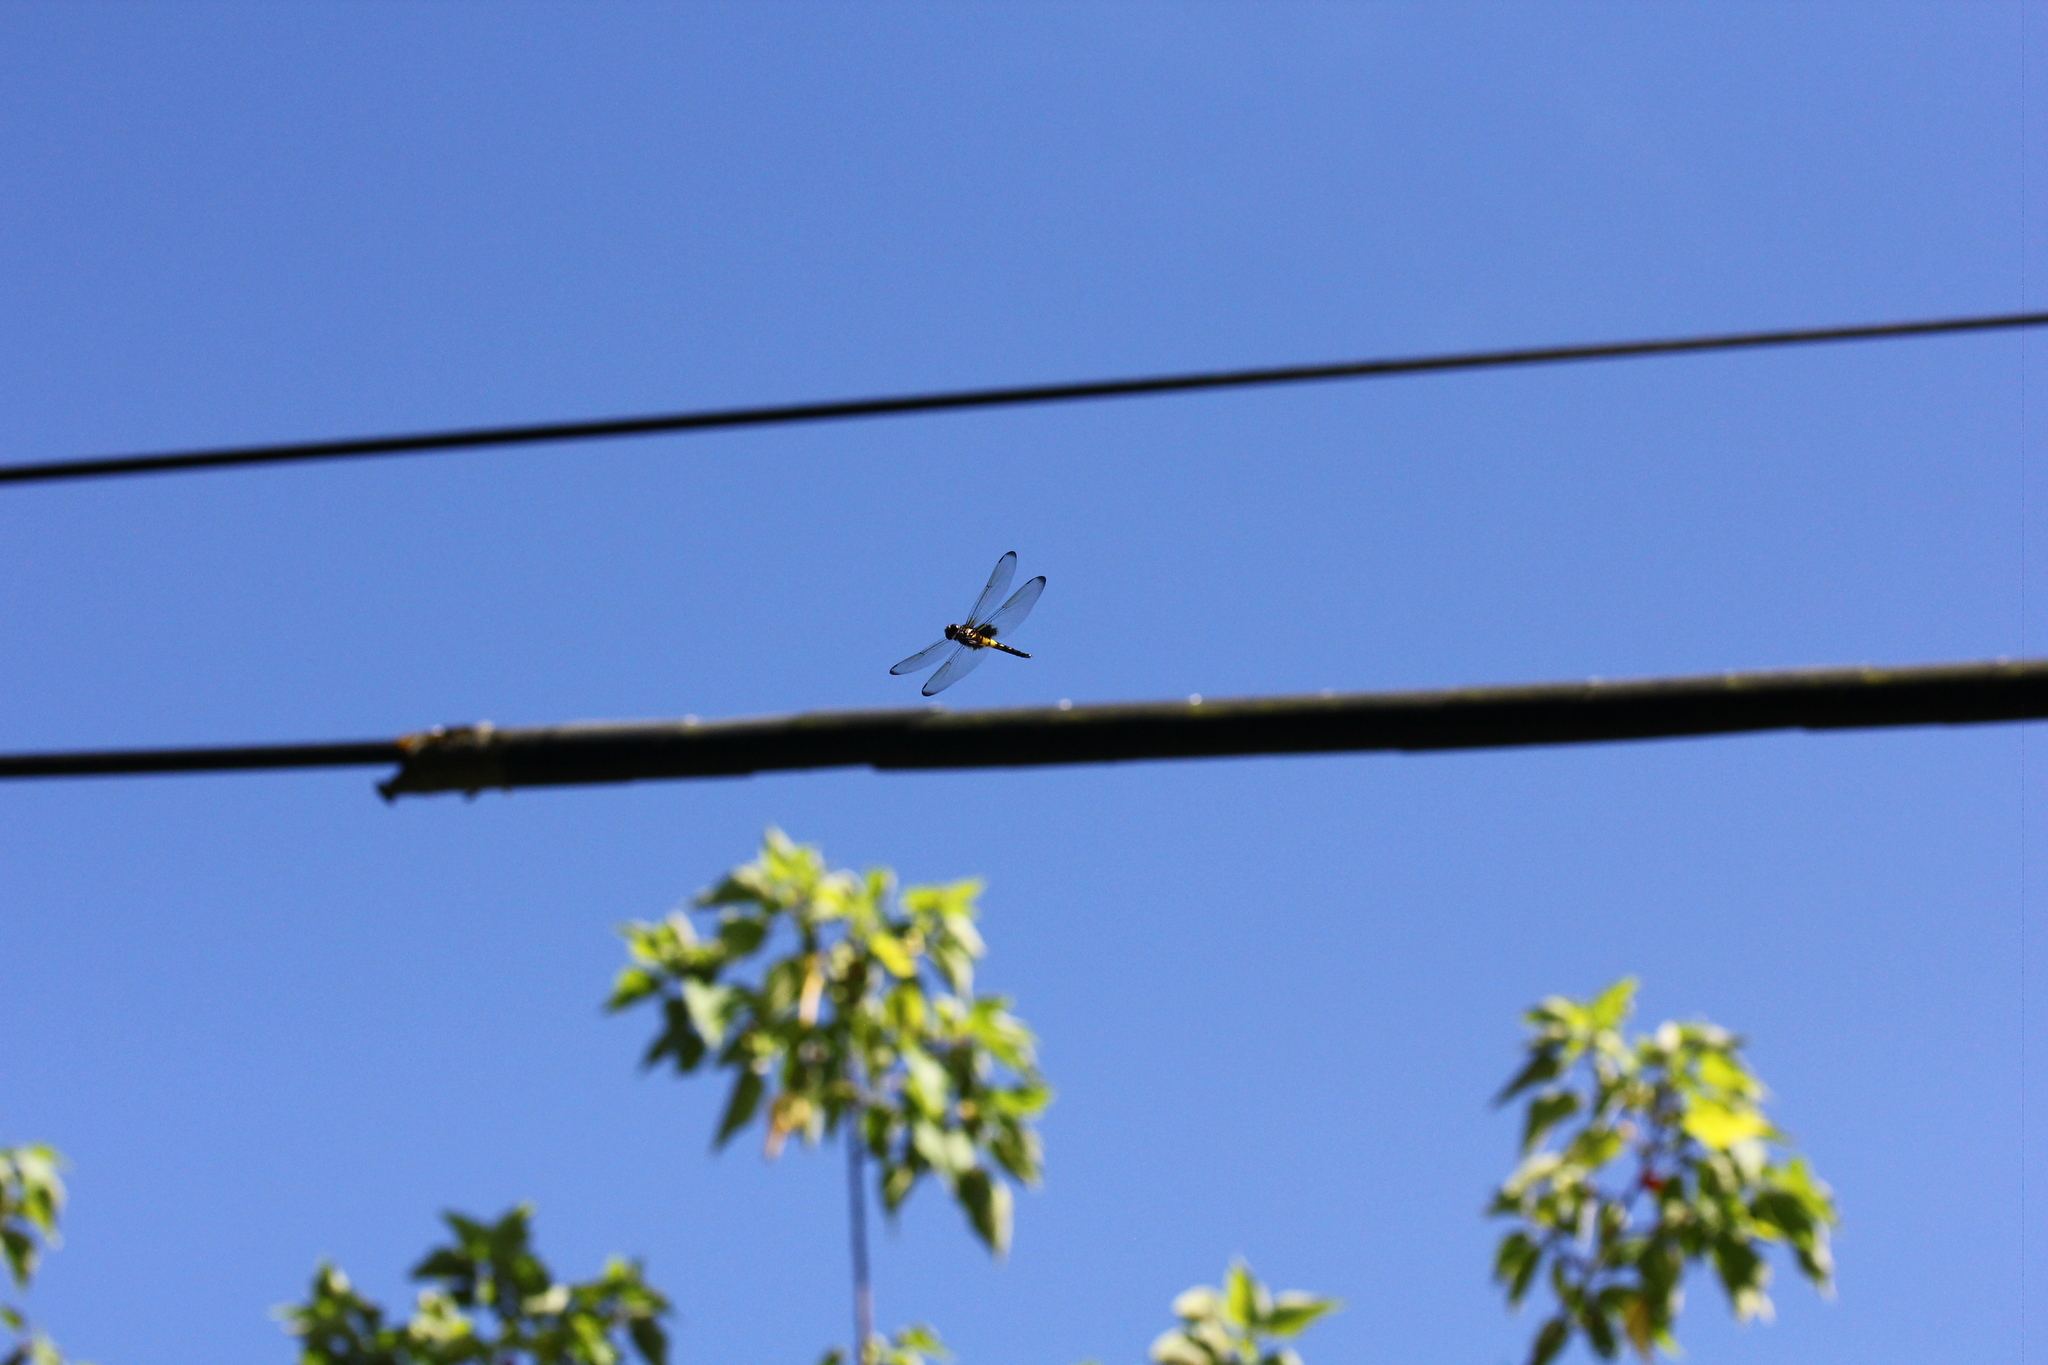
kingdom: Animalia
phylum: Arthropoda
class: Insecta
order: Odonata
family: Libellulidae
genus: Pseudothemis
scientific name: Pseudothemis zonata
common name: Pied skimmer
